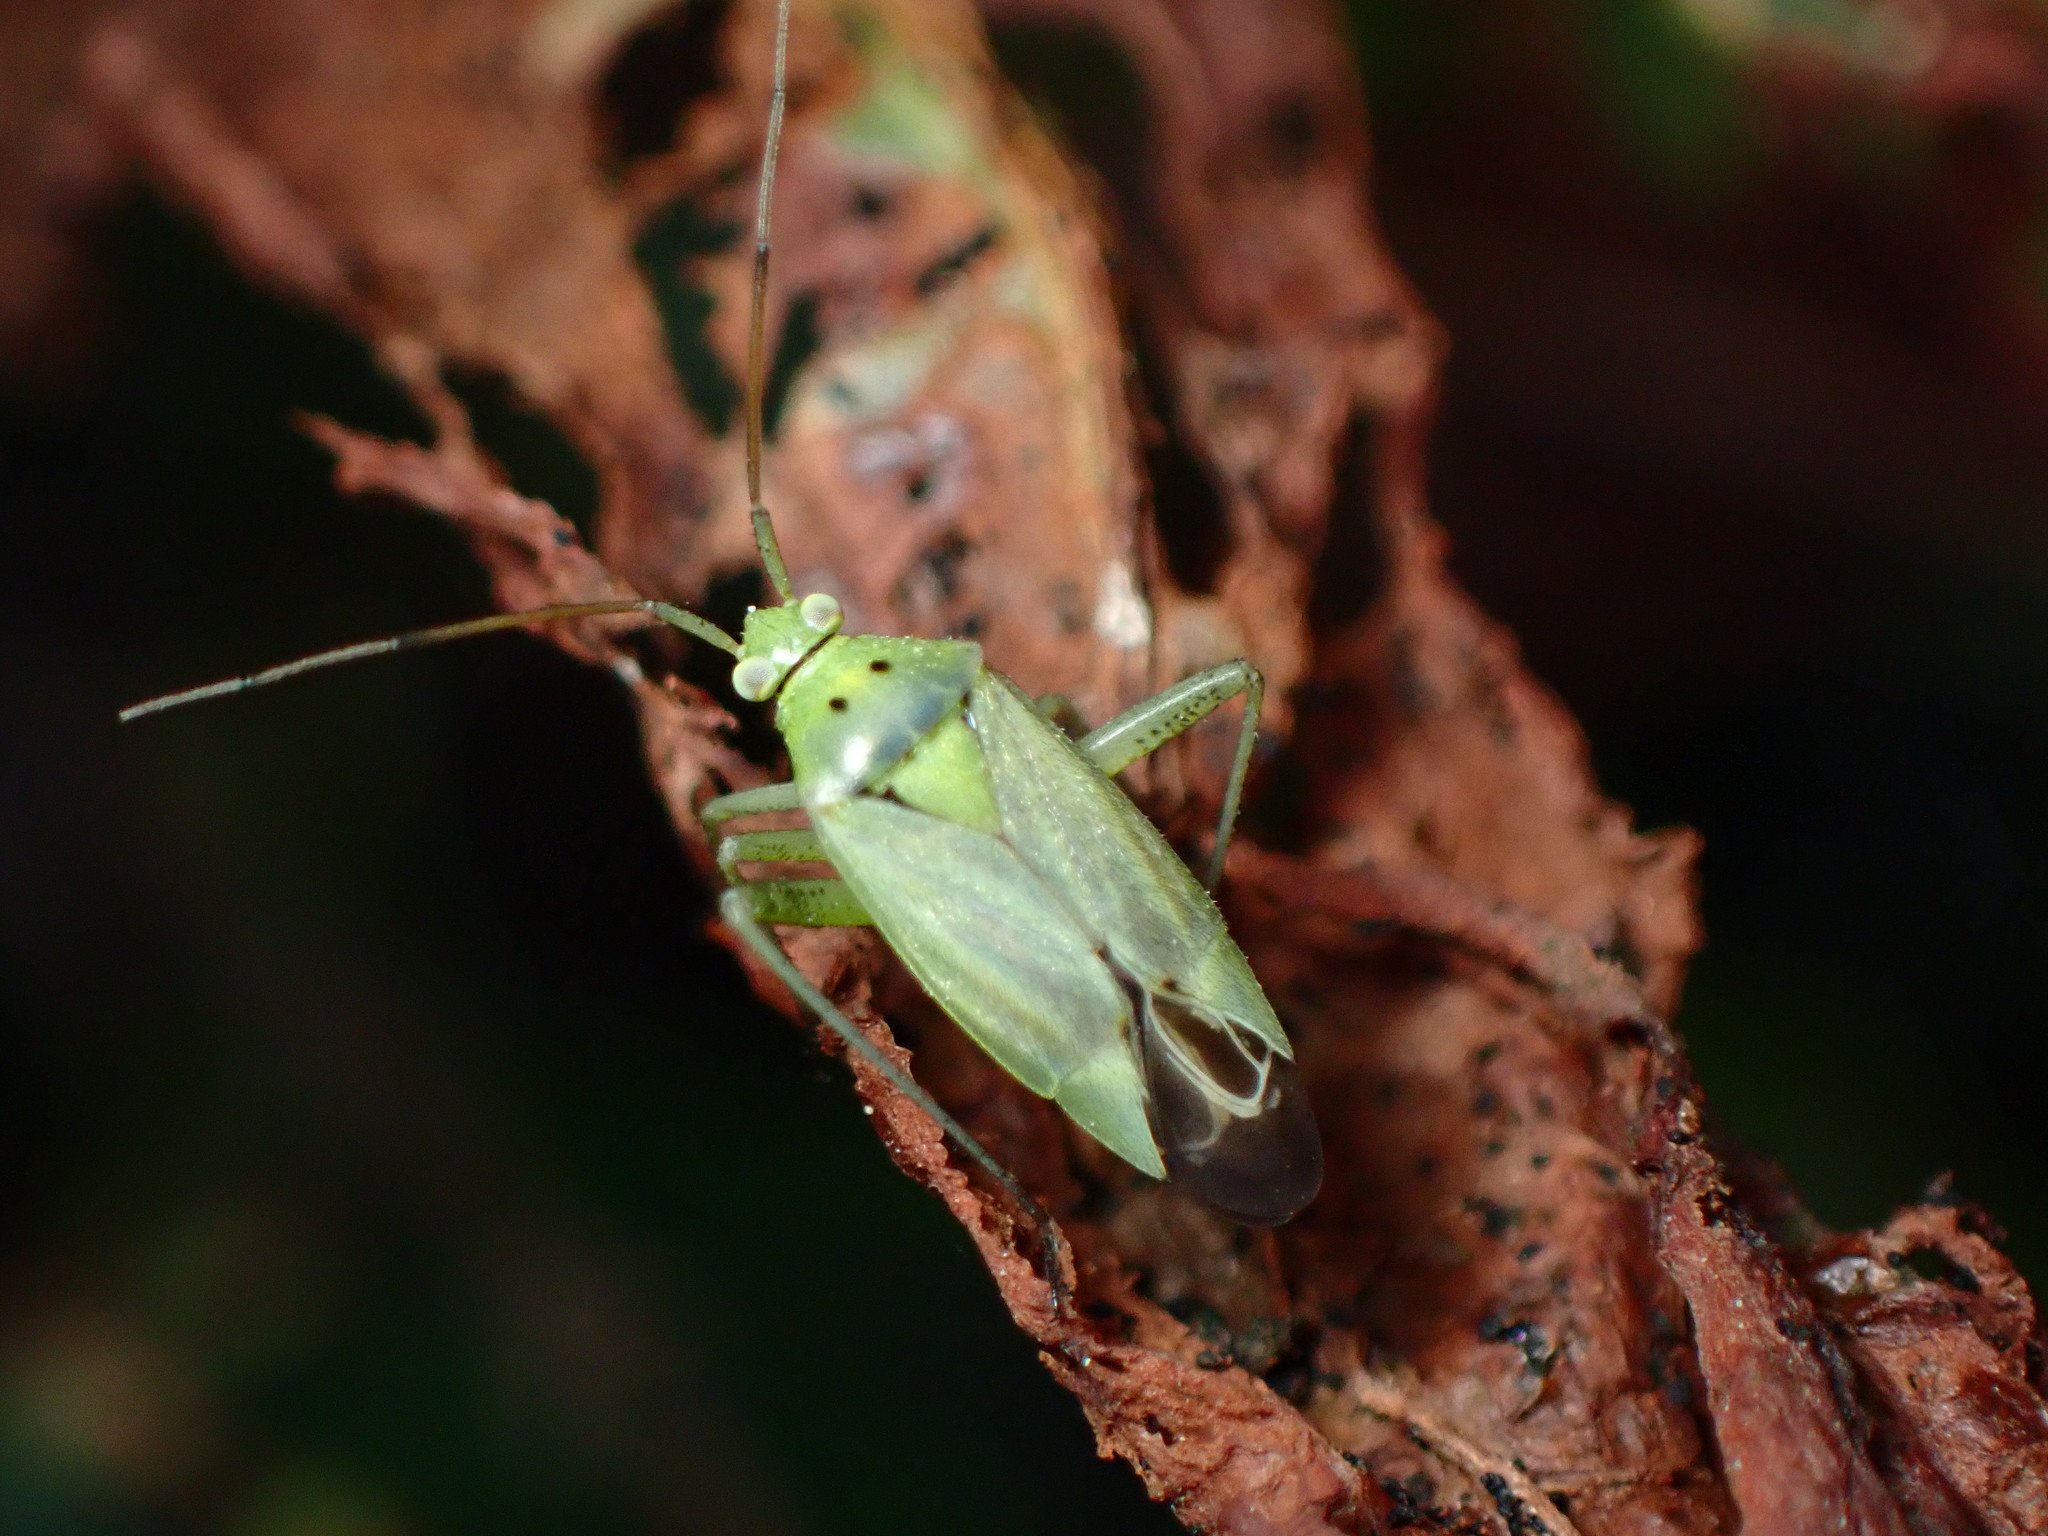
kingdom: Animalia
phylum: Arthropoda
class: Insecta
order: Hemiptera
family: Miridae
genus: Closterotomus
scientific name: Closterotomus norvegicus
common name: Plant bug
